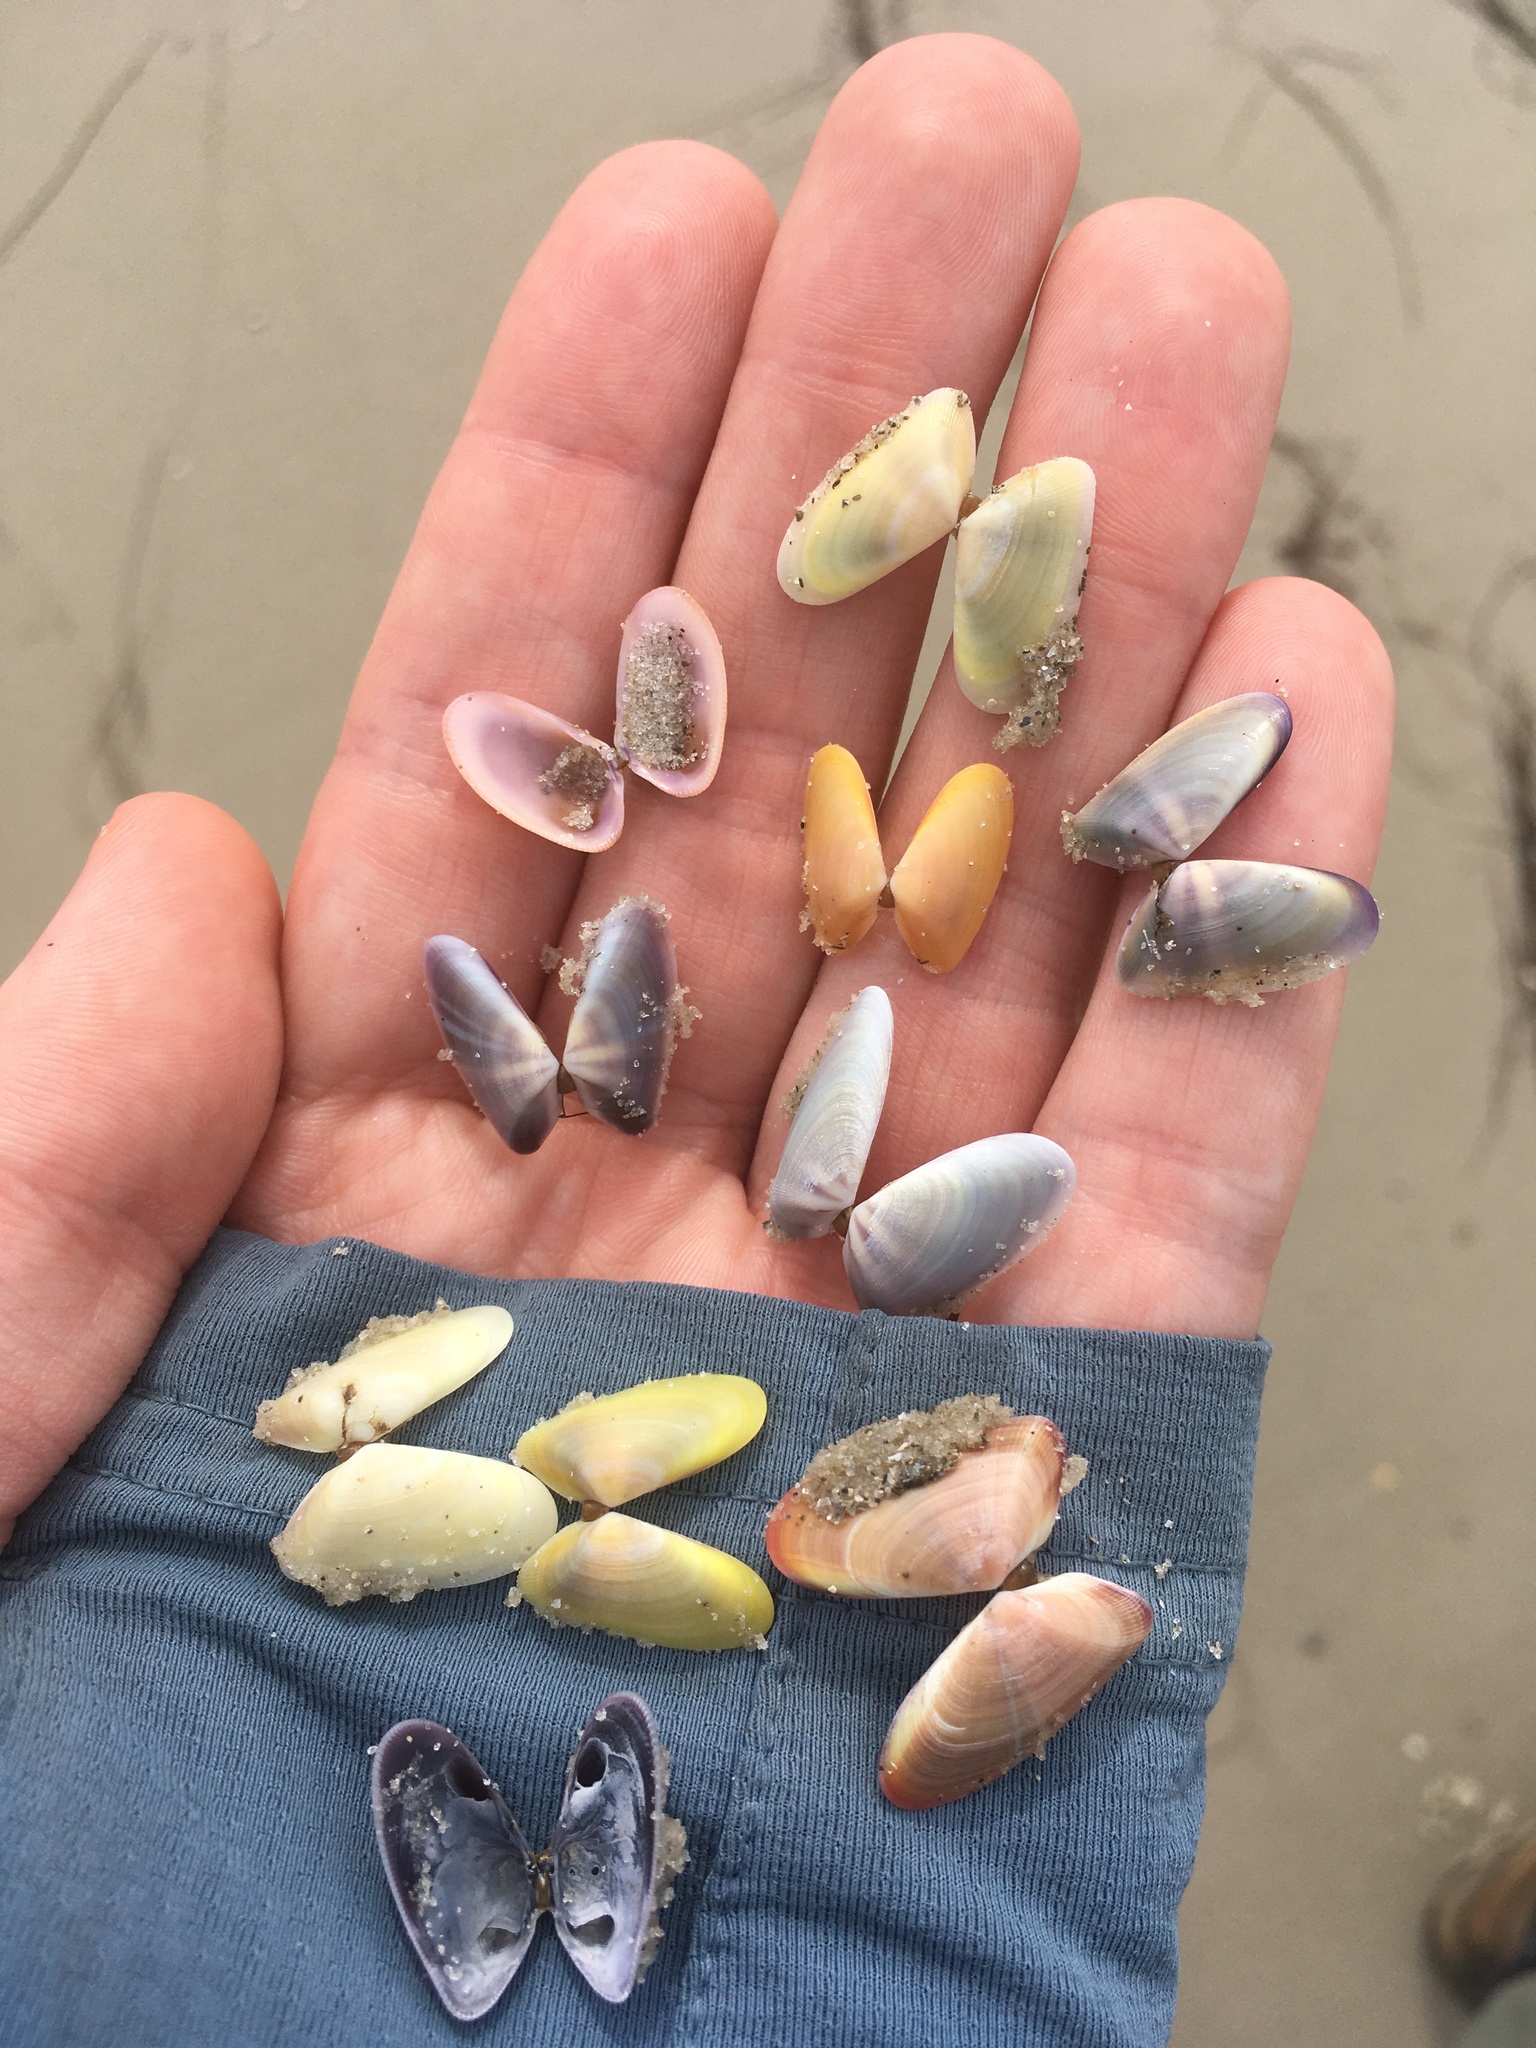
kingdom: Animalia
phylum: Mollusca
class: Bivalvia
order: Cardiida
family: Donacidae
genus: Donax
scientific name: Donax variabilis
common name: Butterfly shell
